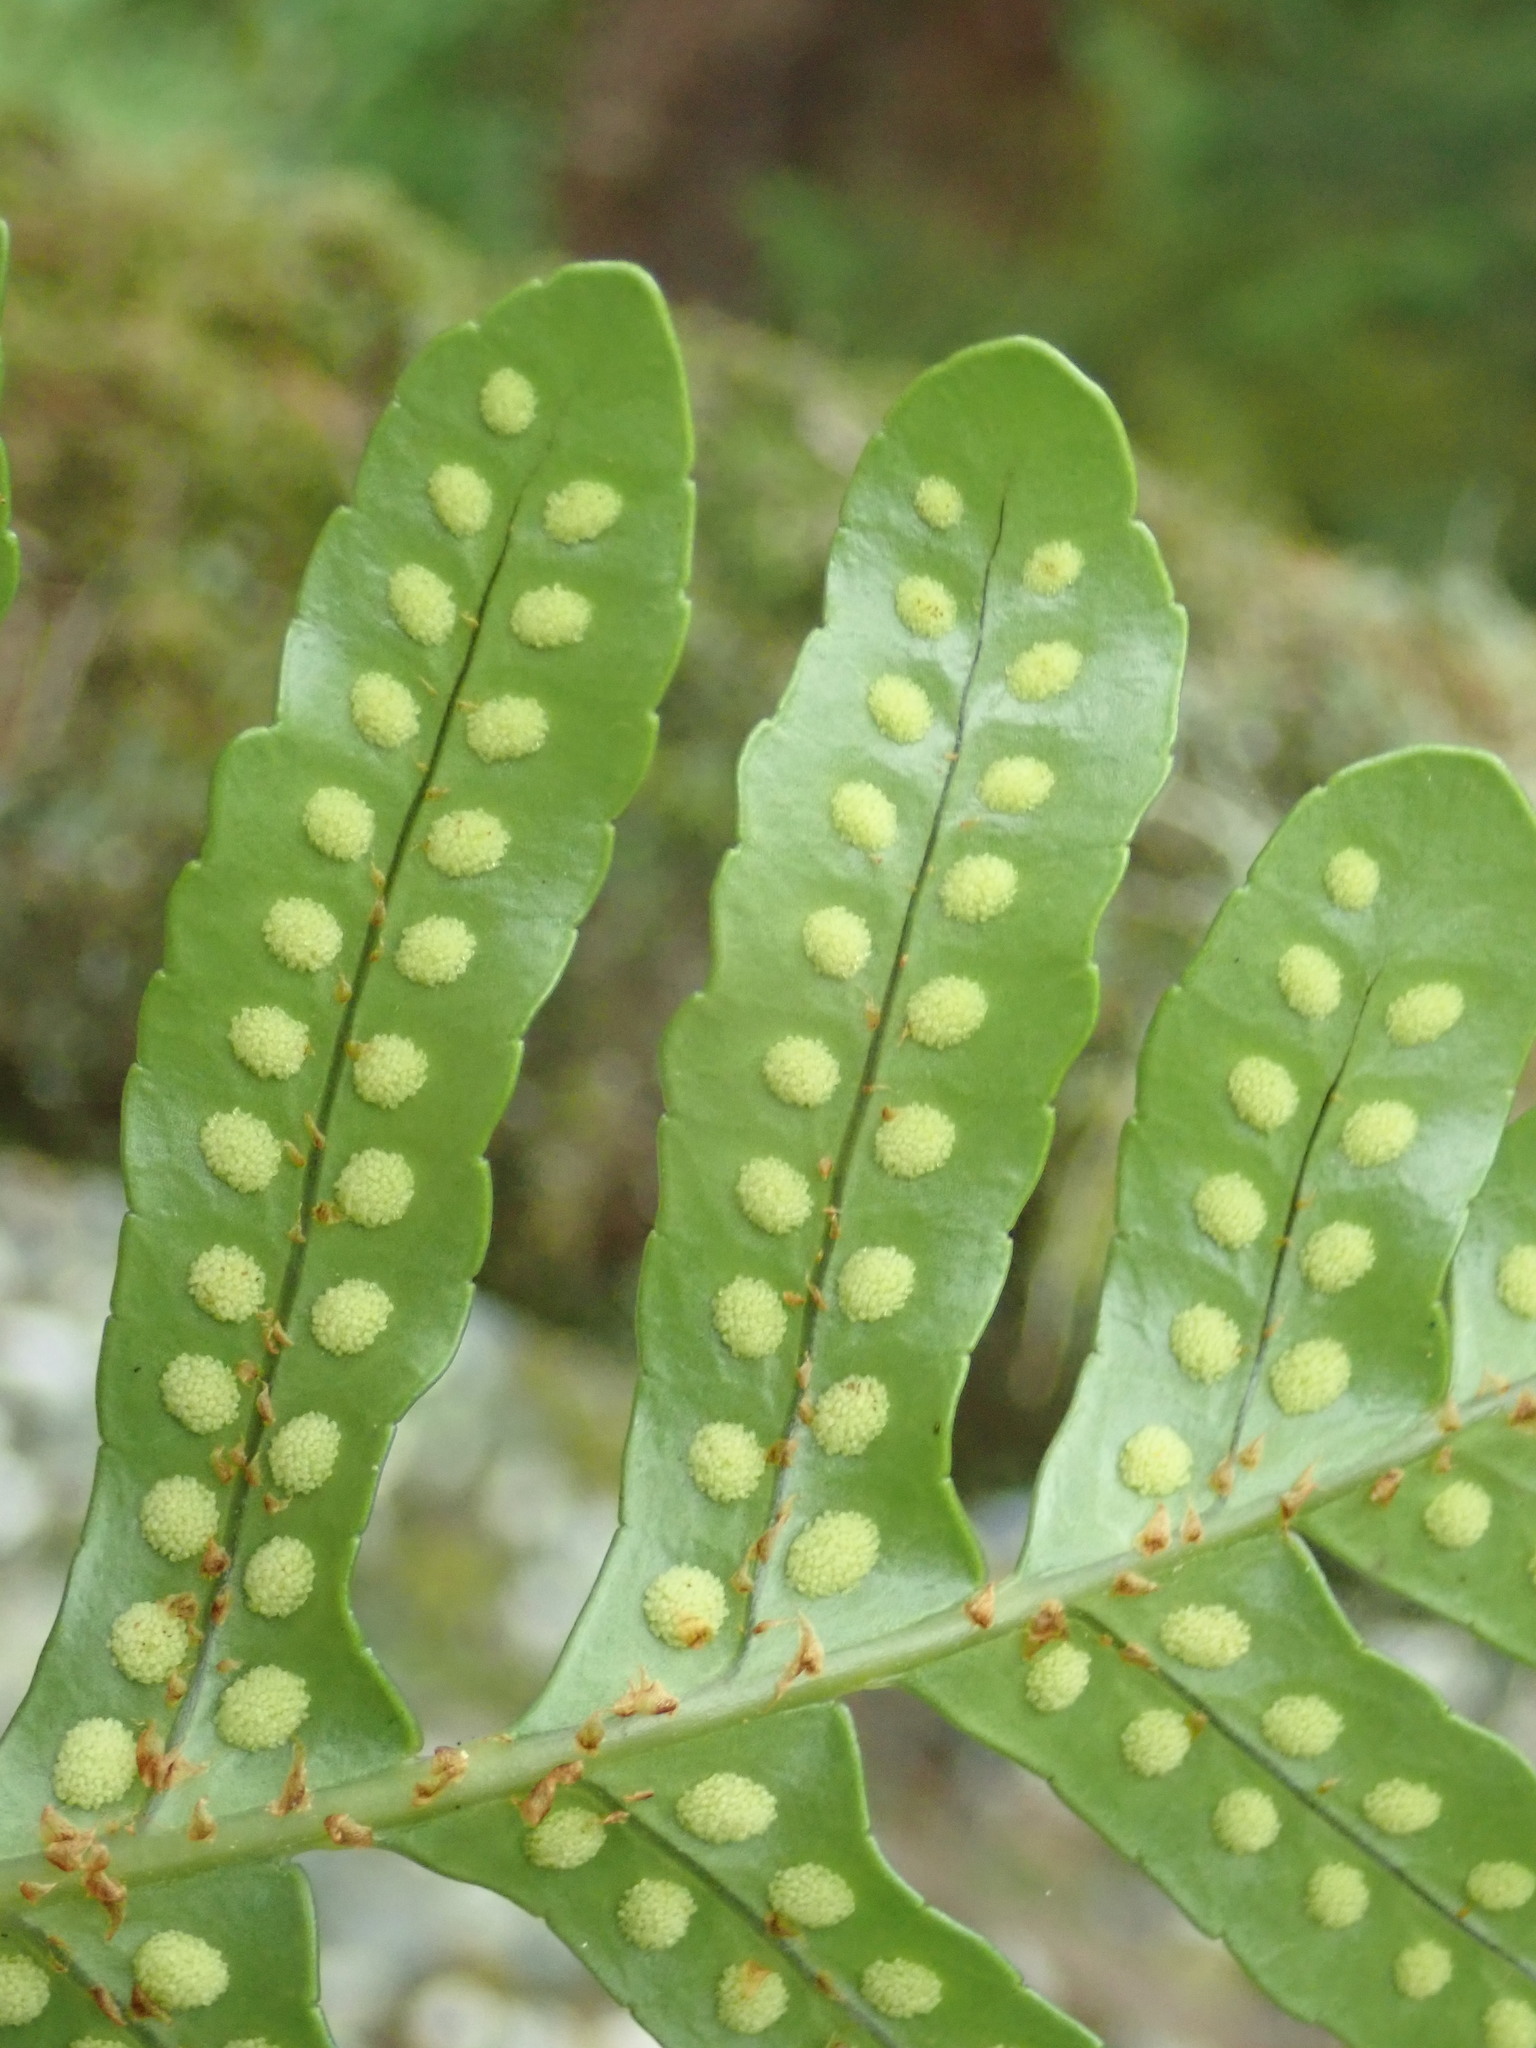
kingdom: Plantae
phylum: Tracheophyta
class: Polypodiopsida
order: Polypodiales
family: Polypodiaceae
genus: Polypodium
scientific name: Polypodium scouleri
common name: Scouler's polypody
